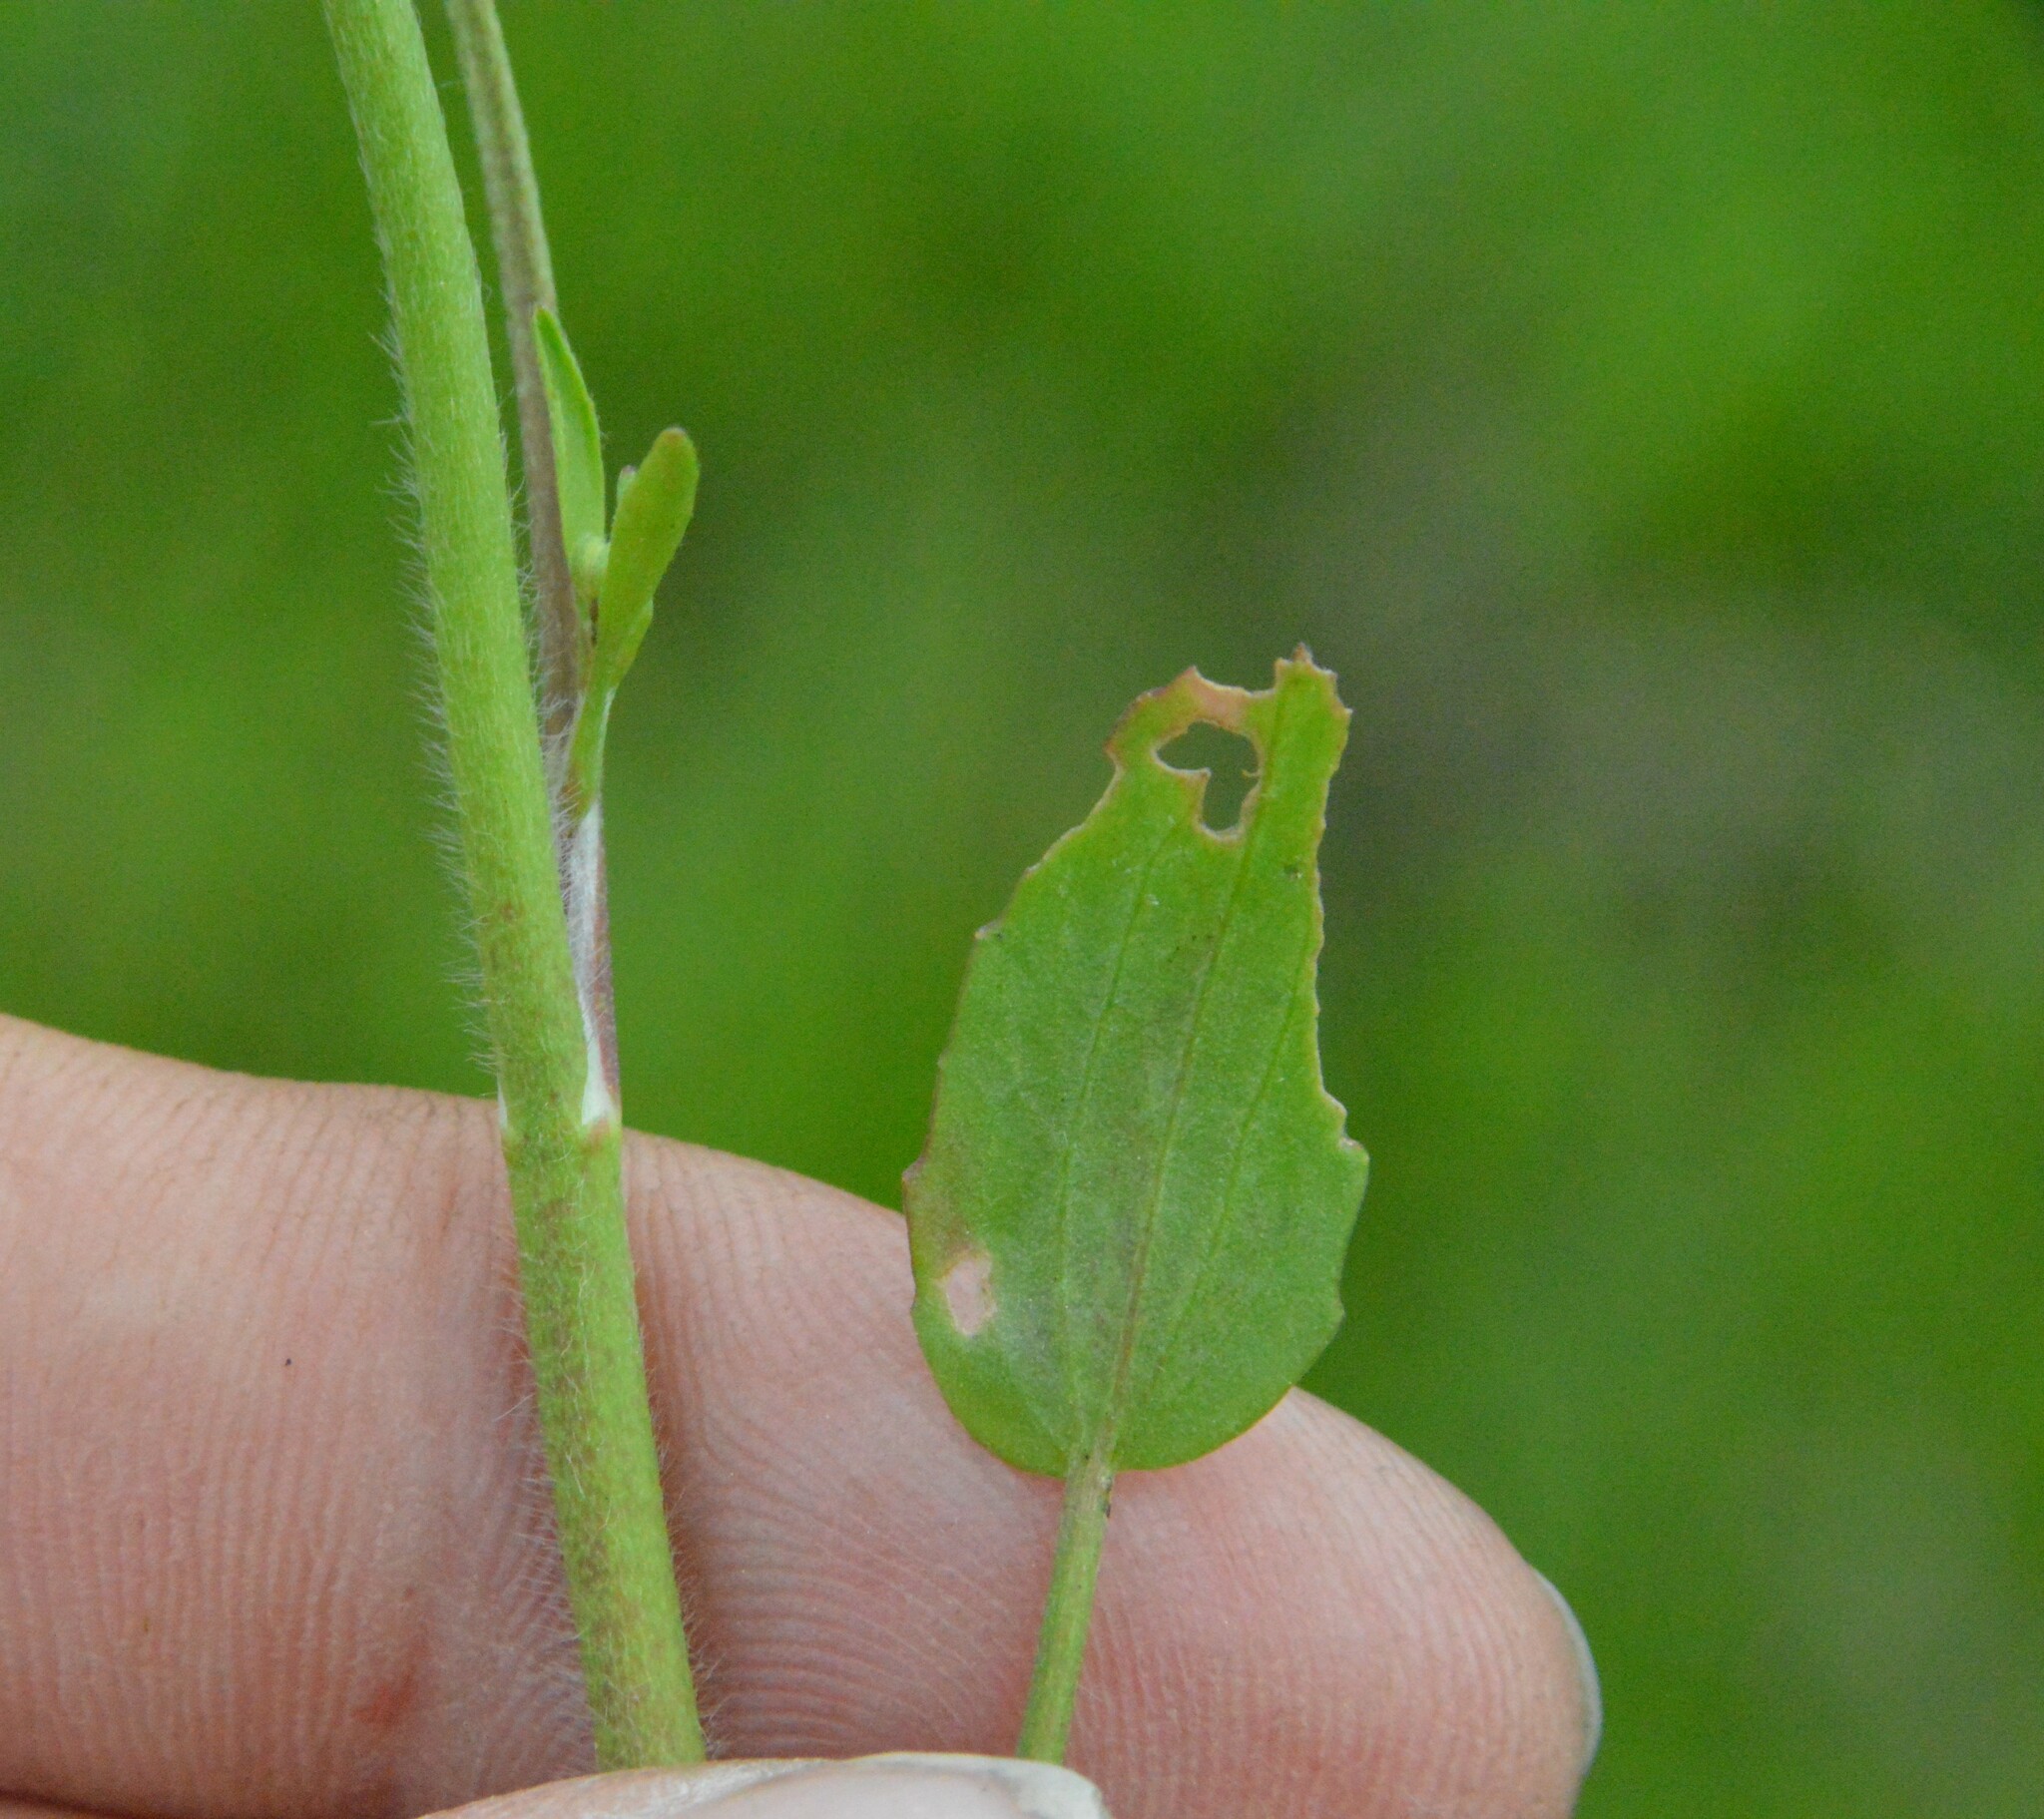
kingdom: Plantae
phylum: Tracheophyta
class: Magnoliopsida
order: Ranunculales
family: Ranunculaceae
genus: Ranunculus
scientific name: Ranunculus laxicaulis
